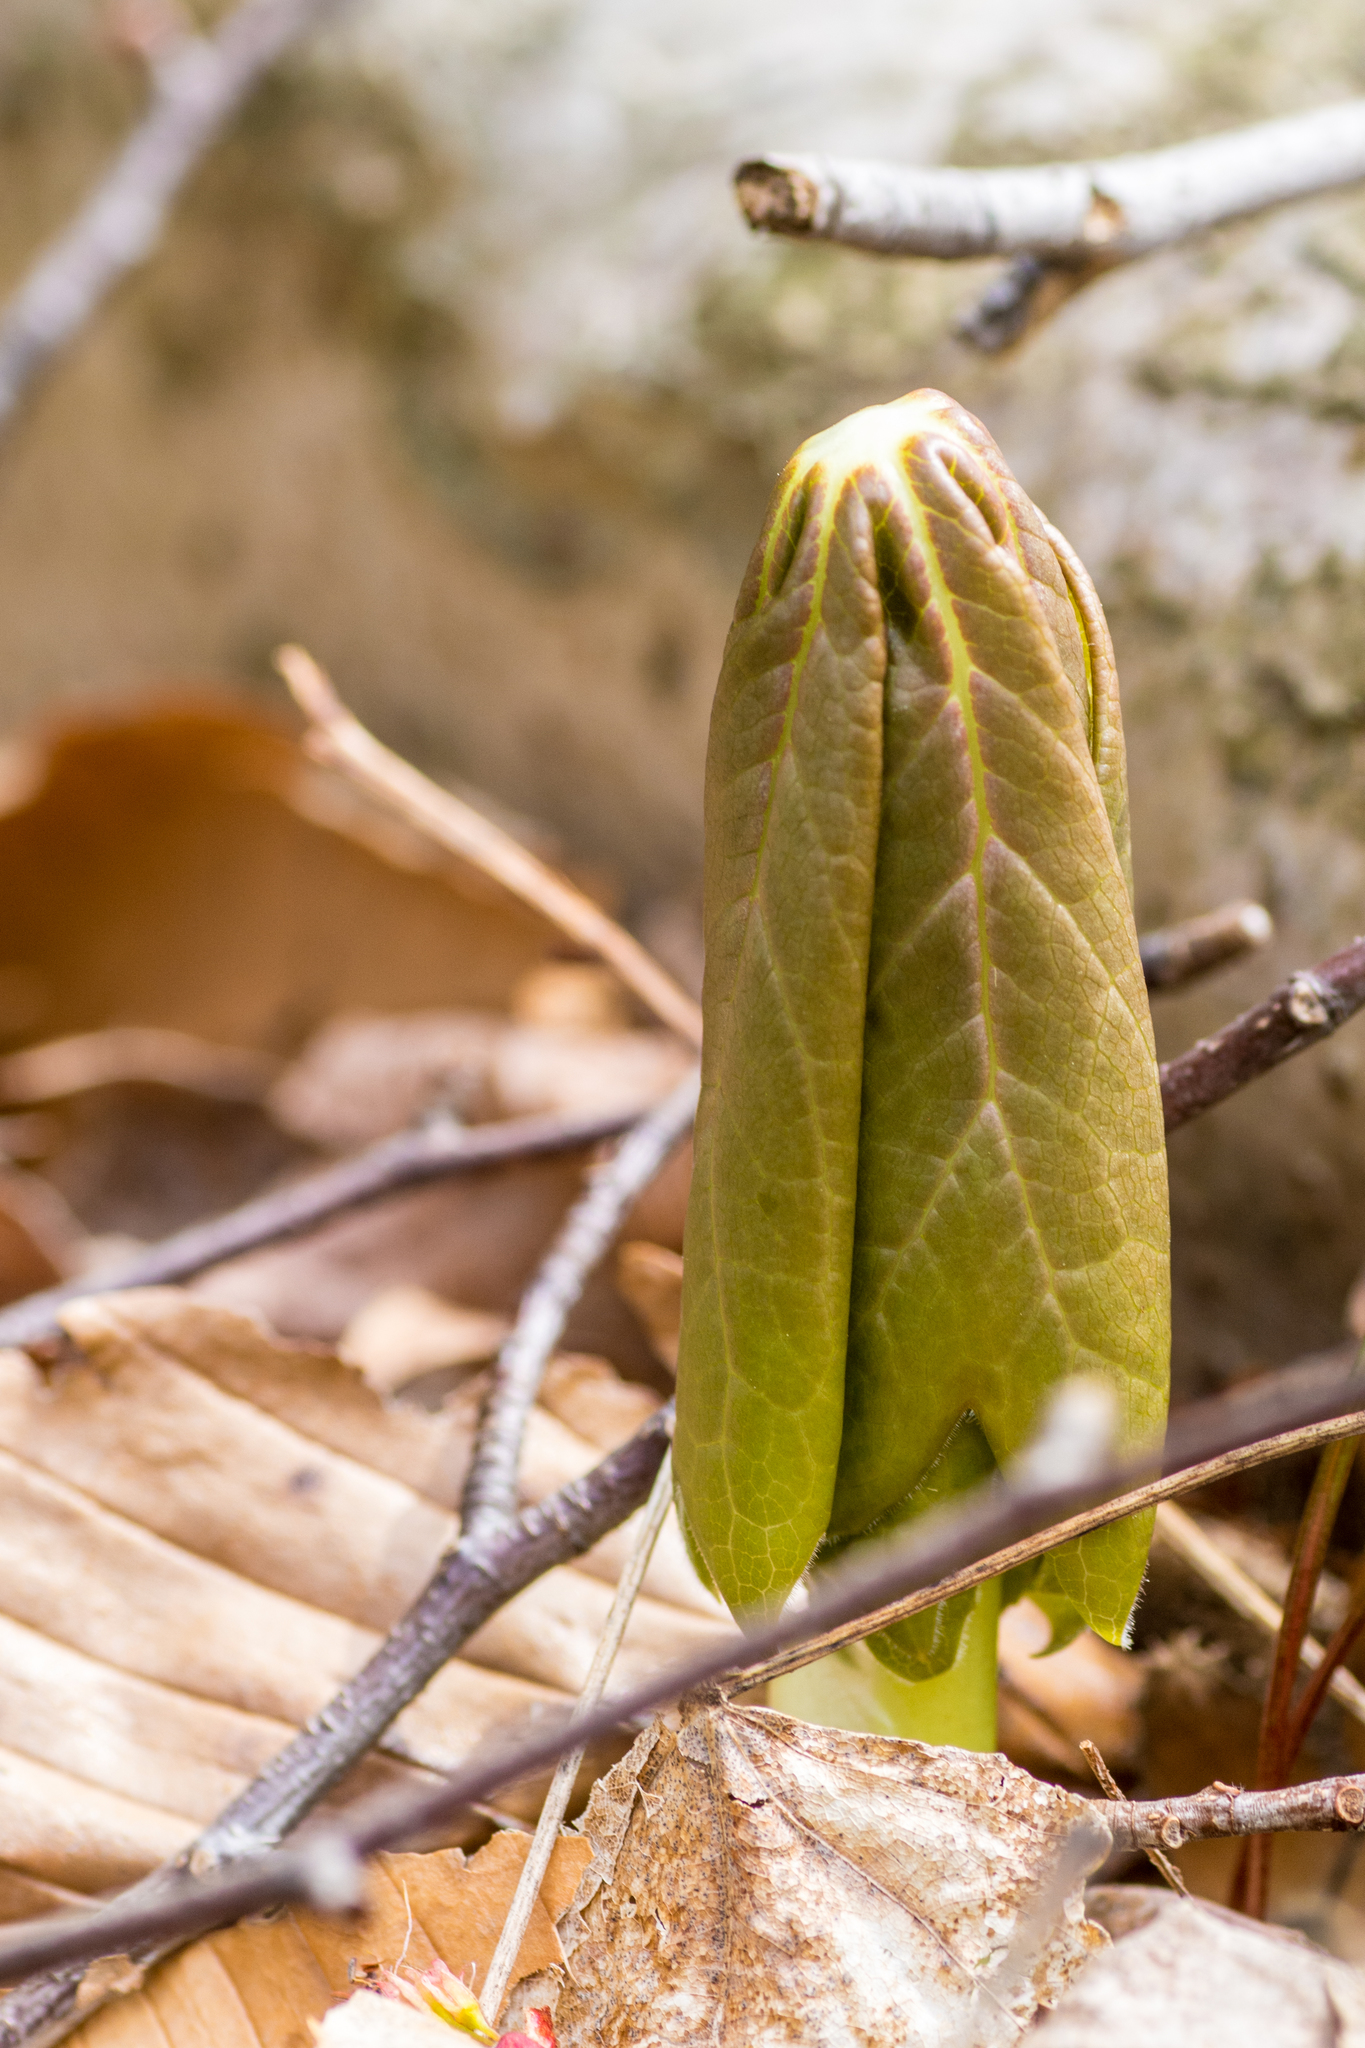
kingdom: Plantae
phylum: Tracheophyta
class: Magnoliopsida
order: Ranunculales
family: Berberidaceae
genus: Podophyllum
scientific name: Podophyllum peltatum
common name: Wild mandrake
